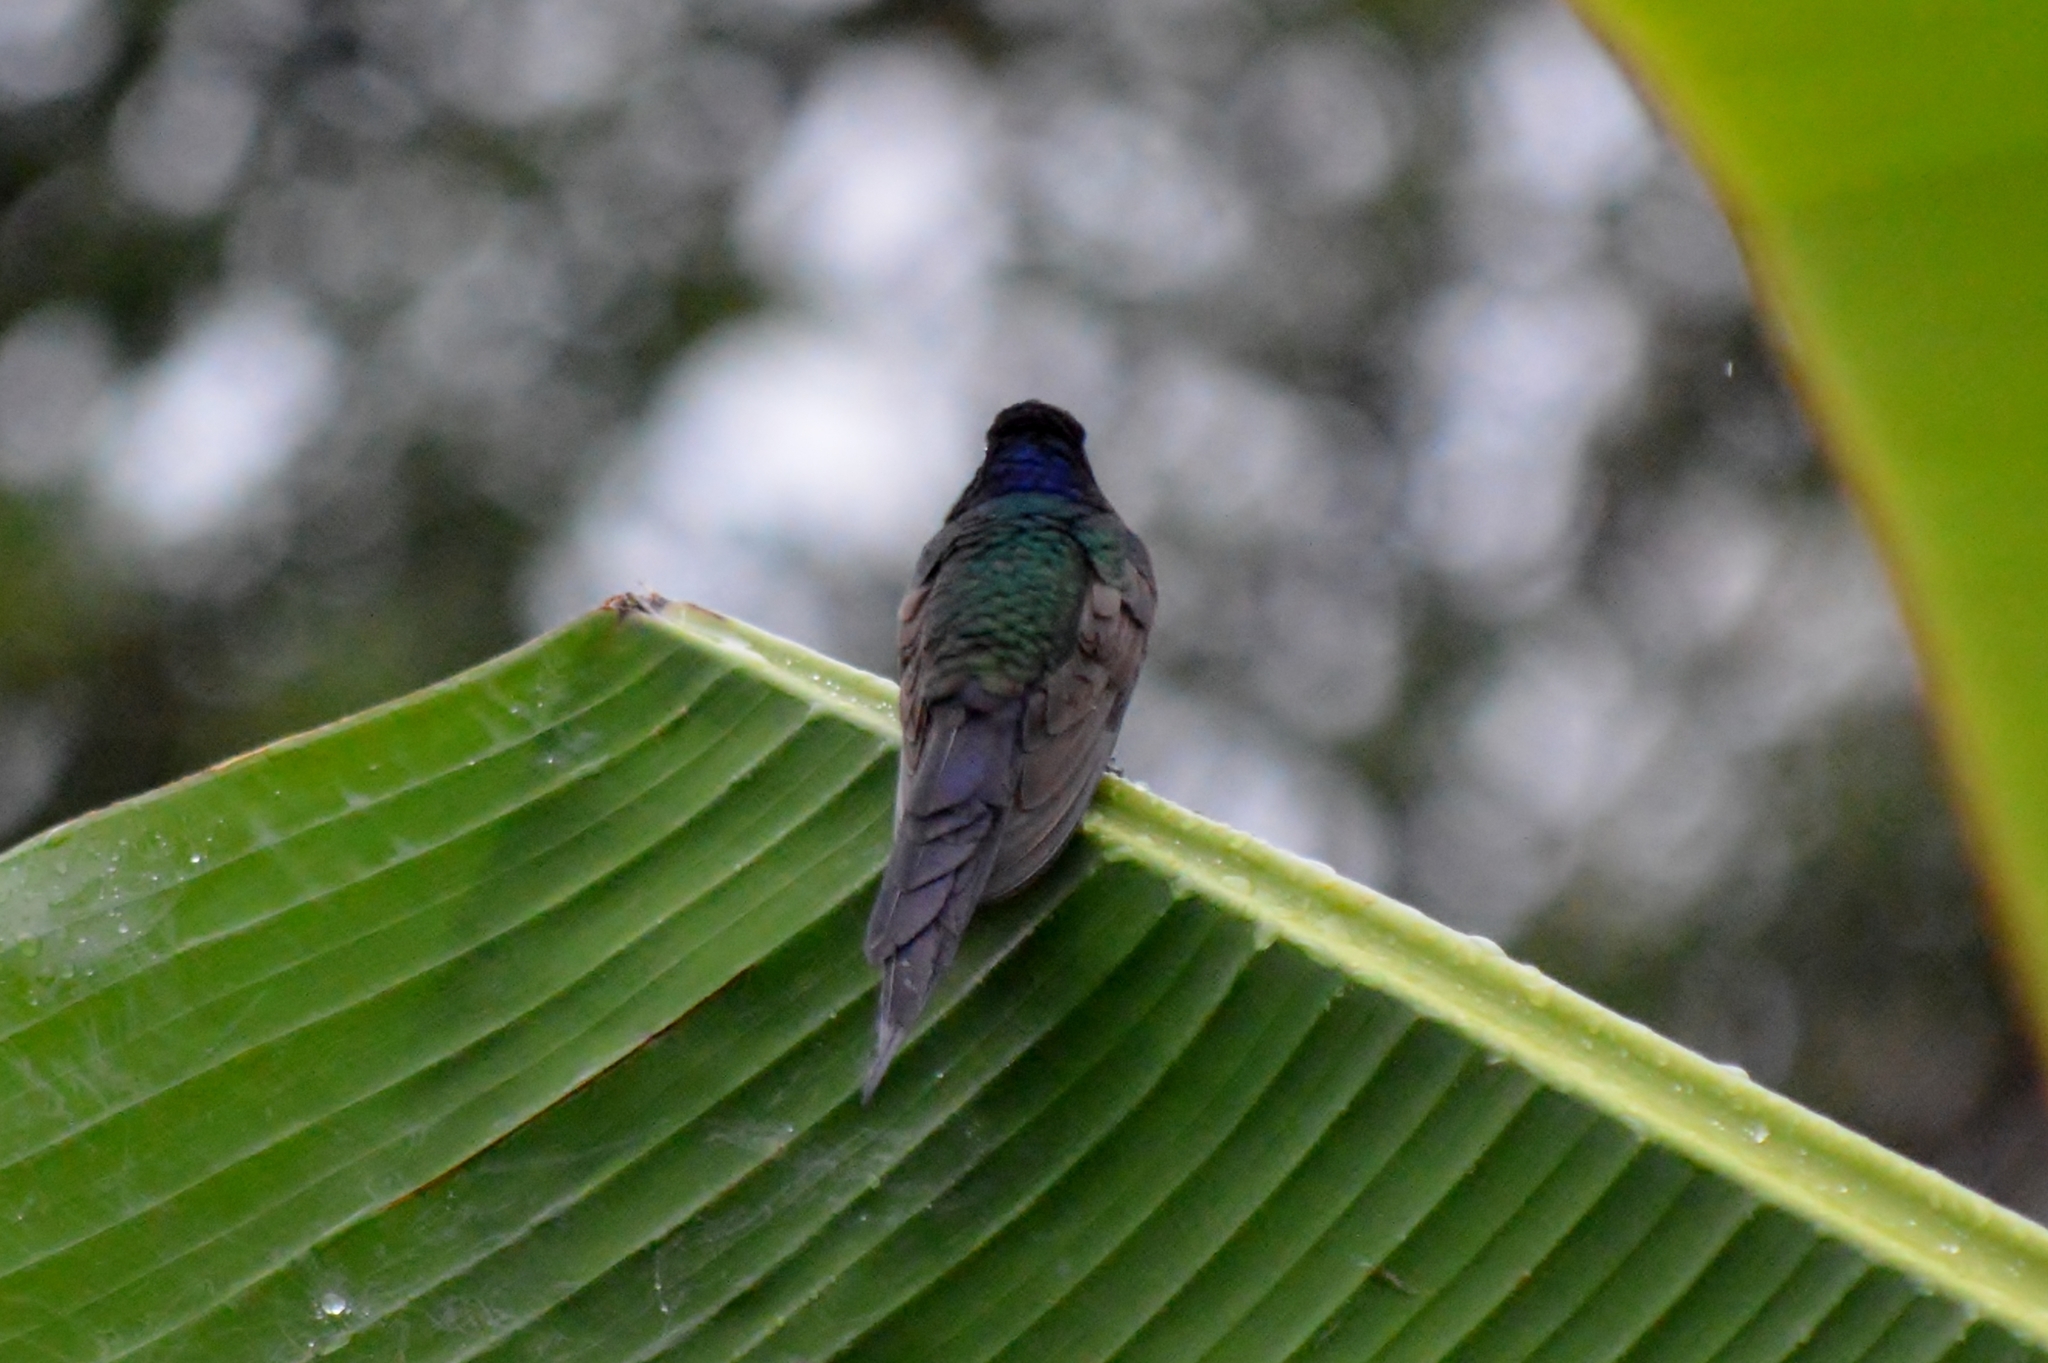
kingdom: Animalia
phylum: Chordata
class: Aves
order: Apodiformes
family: Trochilidae
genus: Eupetomena
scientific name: Eupetomena macroura
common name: Swallow-tailed hummingbird
